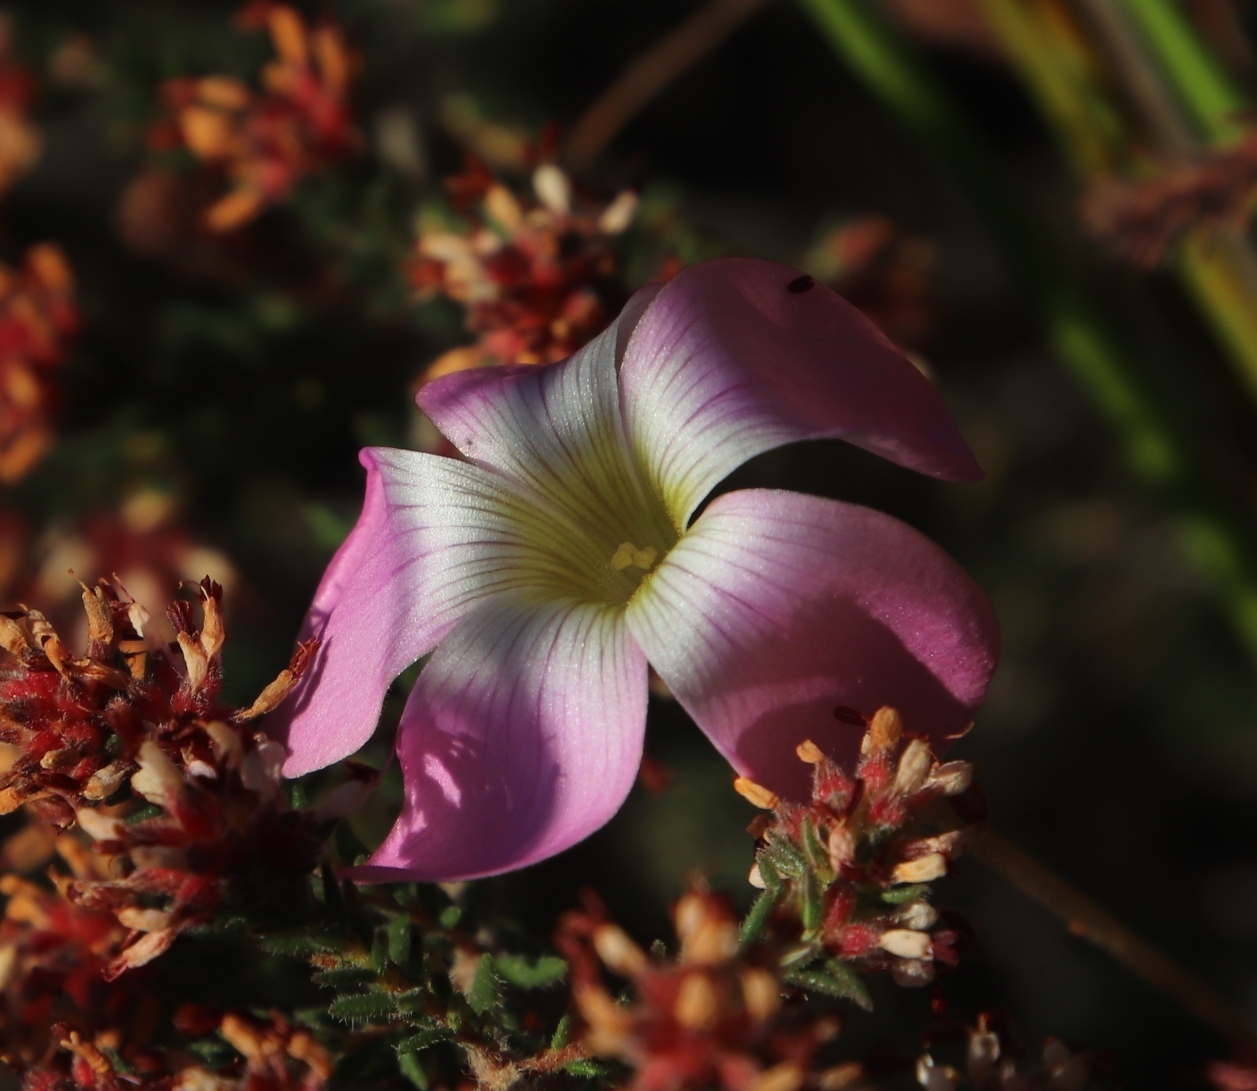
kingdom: Plantae
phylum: Tracheophyta
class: Magnoliopsida
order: Oxalidales
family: Oxalidaceae
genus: Oxalis
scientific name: Oxalis polyphylla
